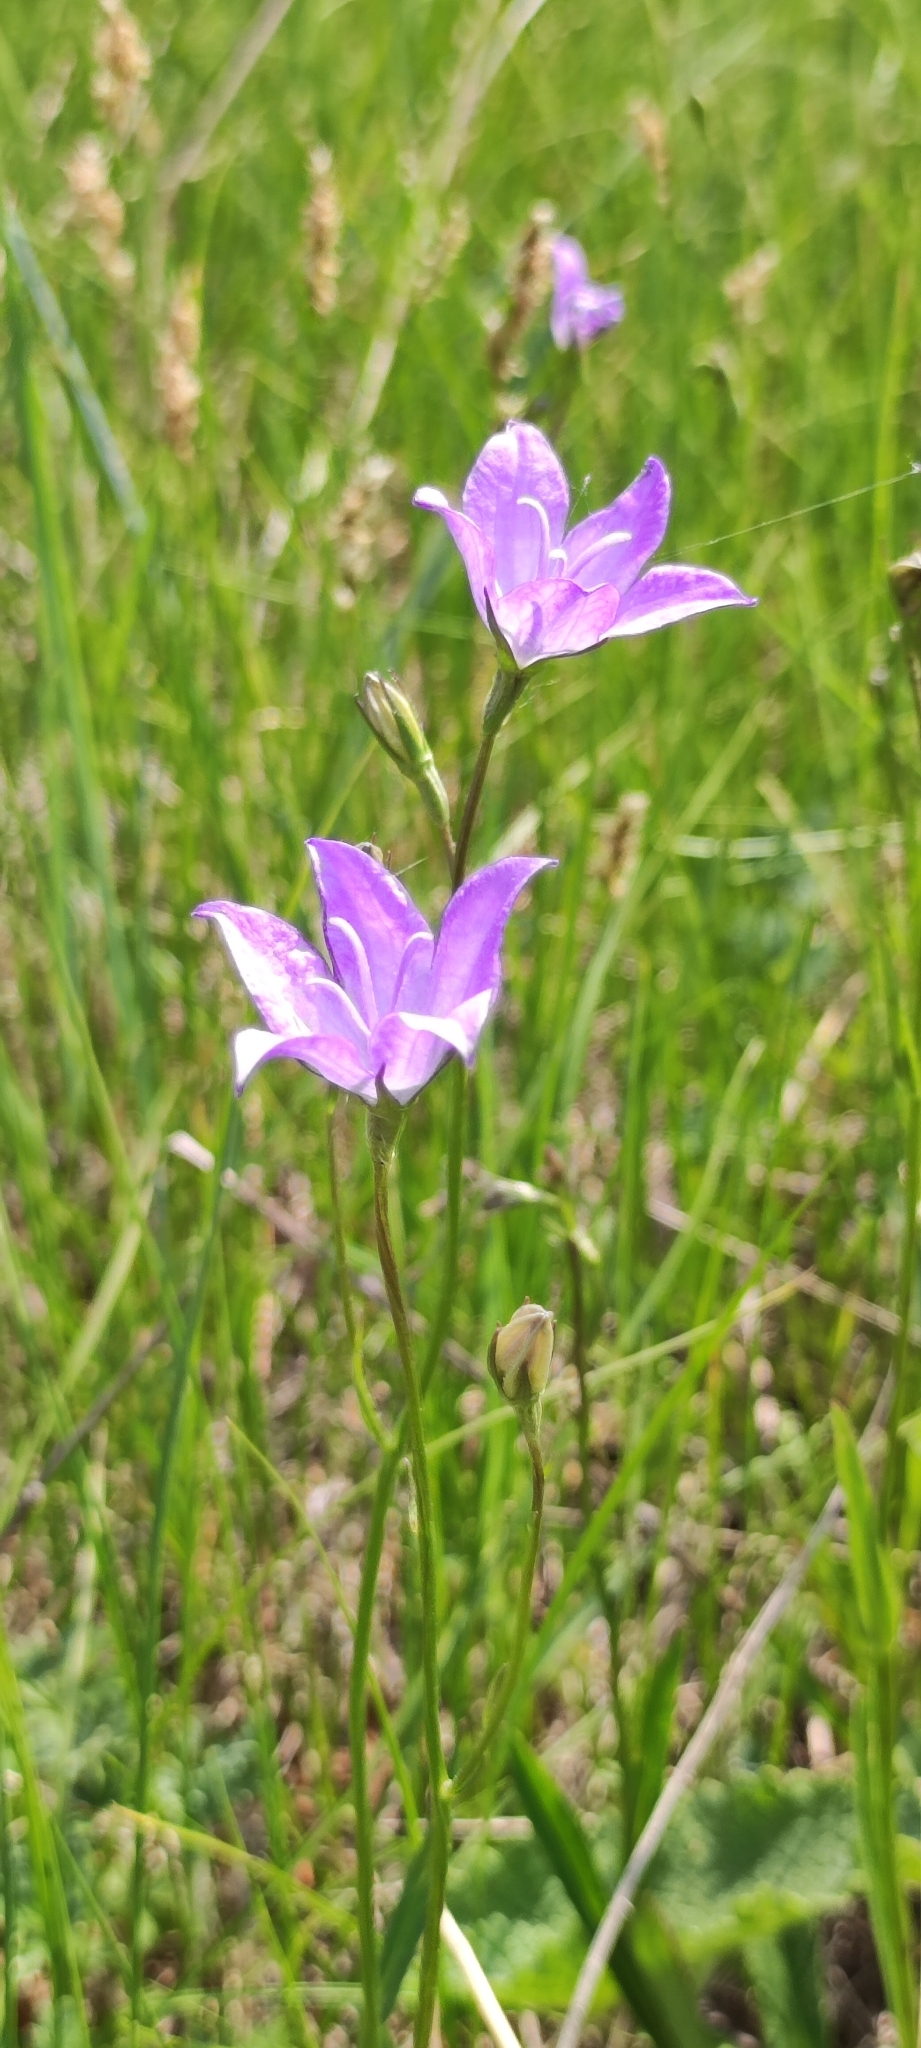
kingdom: Plantae
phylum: Tracheophyta
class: Magnoliopsida
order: Asterales
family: Campanulaceae
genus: Campanula
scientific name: Campanula stevenii
